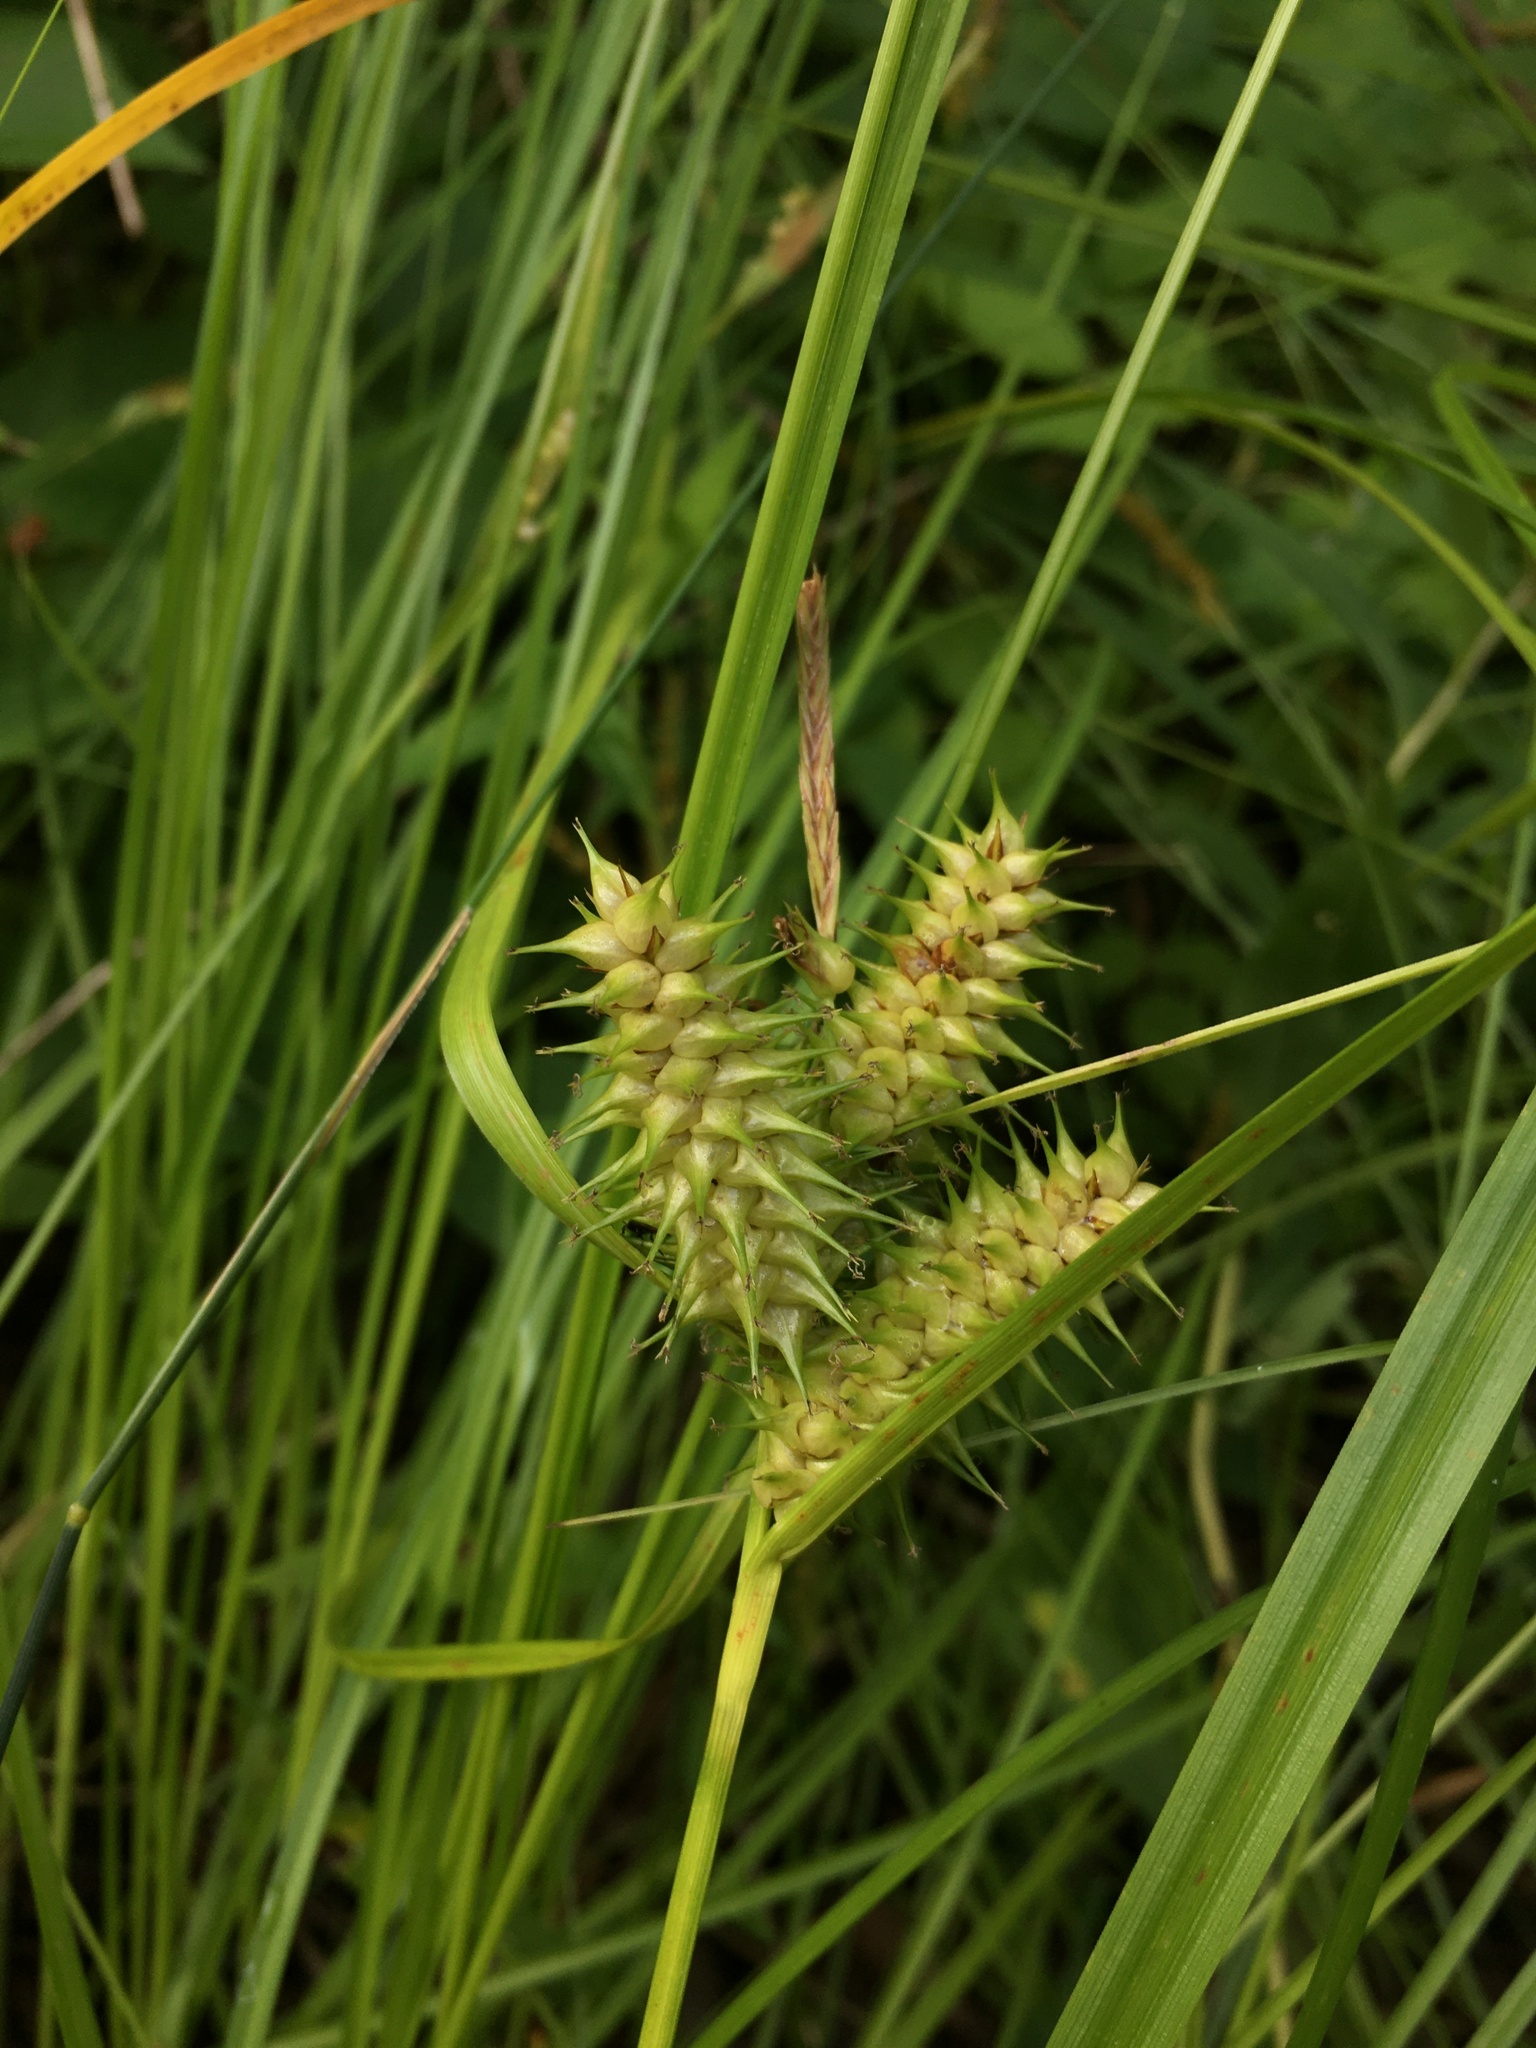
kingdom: Plantae
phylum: Tracheophyta
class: Liliopsida
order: Poales
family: Cyperaceae
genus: Carex
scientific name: Carex retrorsa
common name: Knot-sheath sedge
